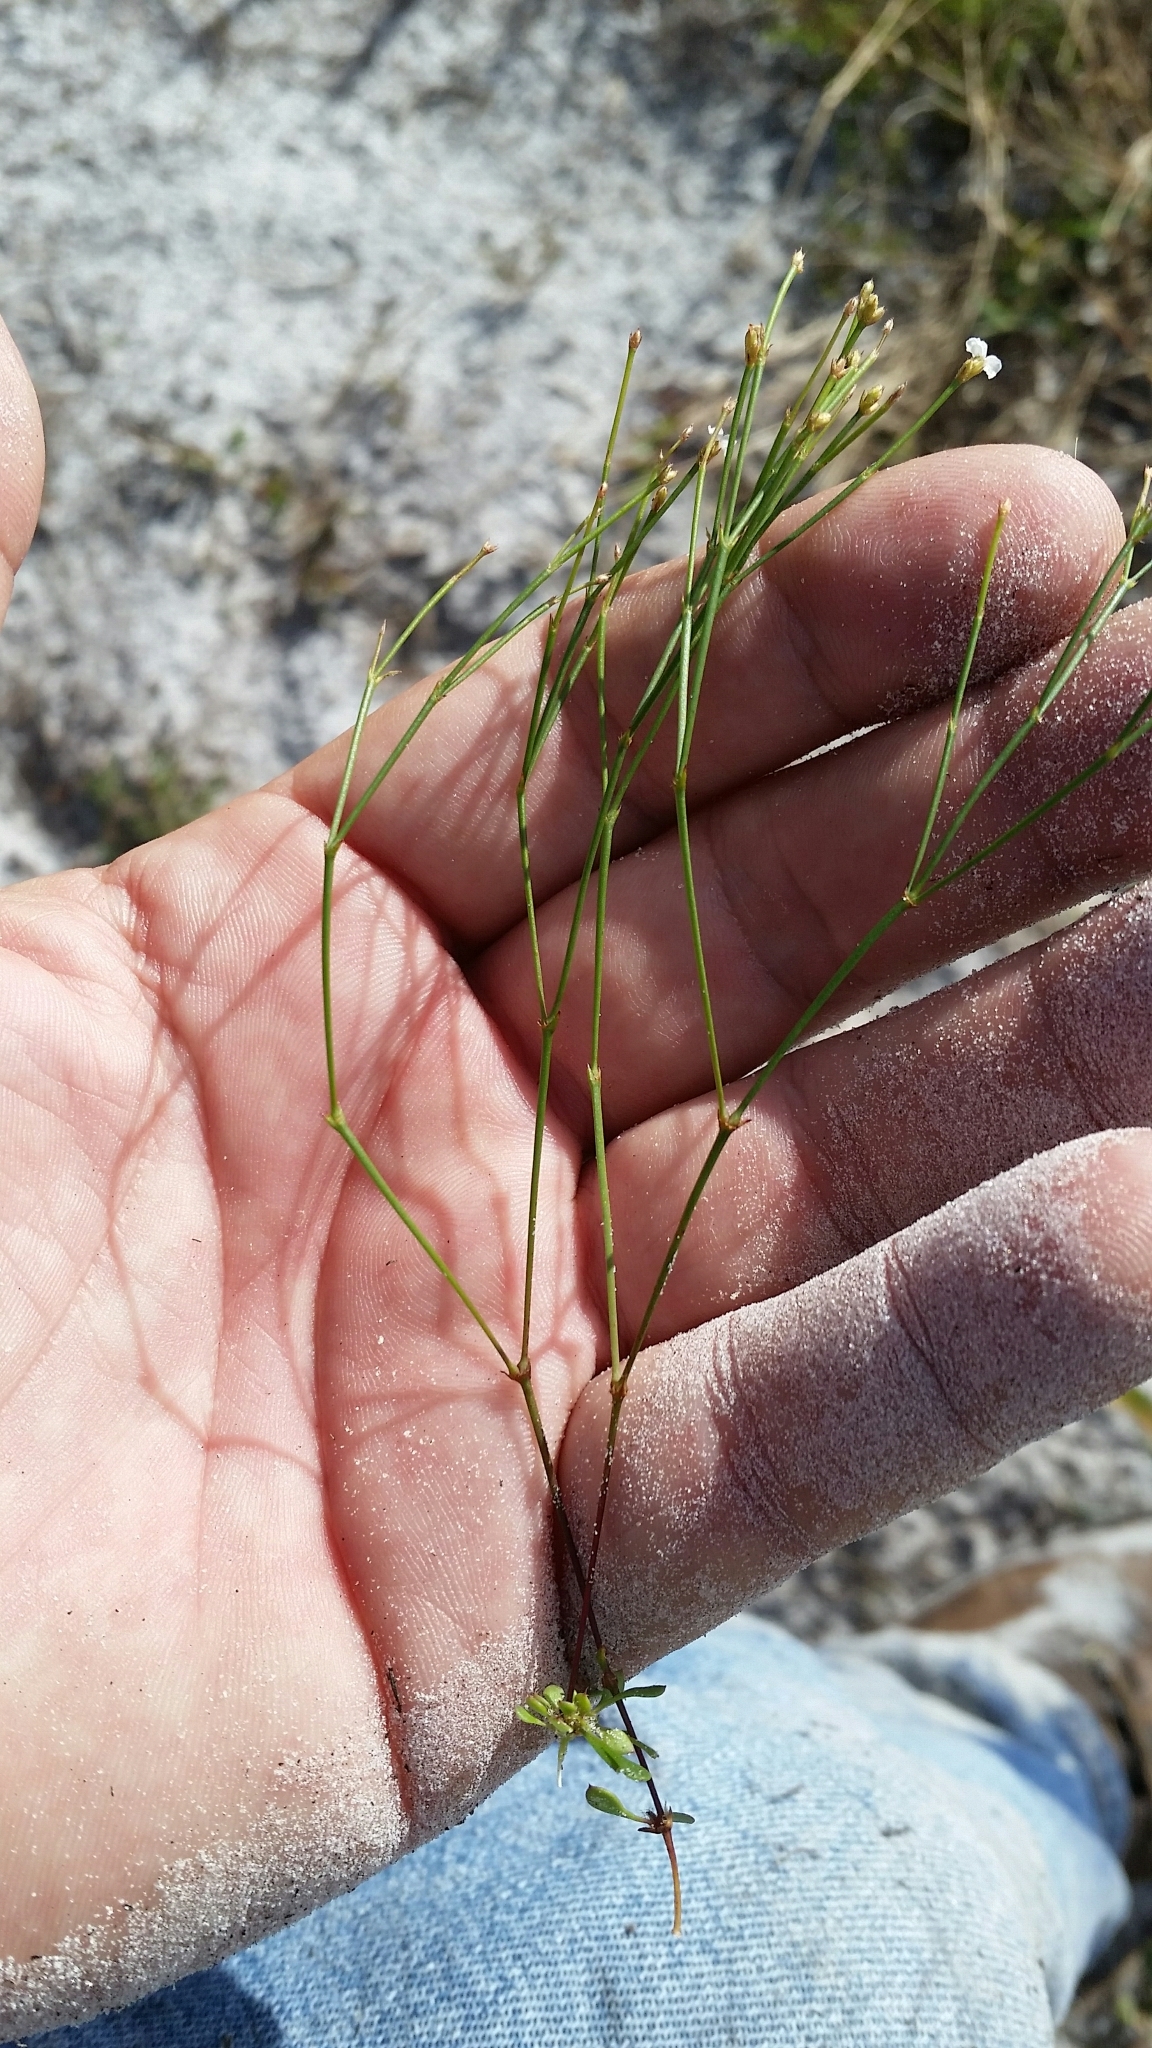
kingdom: Plantae
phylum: Tracheophyta
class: Magnoliopsida
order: Caryophyllales
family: Caryophyllaceae
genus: Stipulicida
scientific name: Stipulicida setacea
